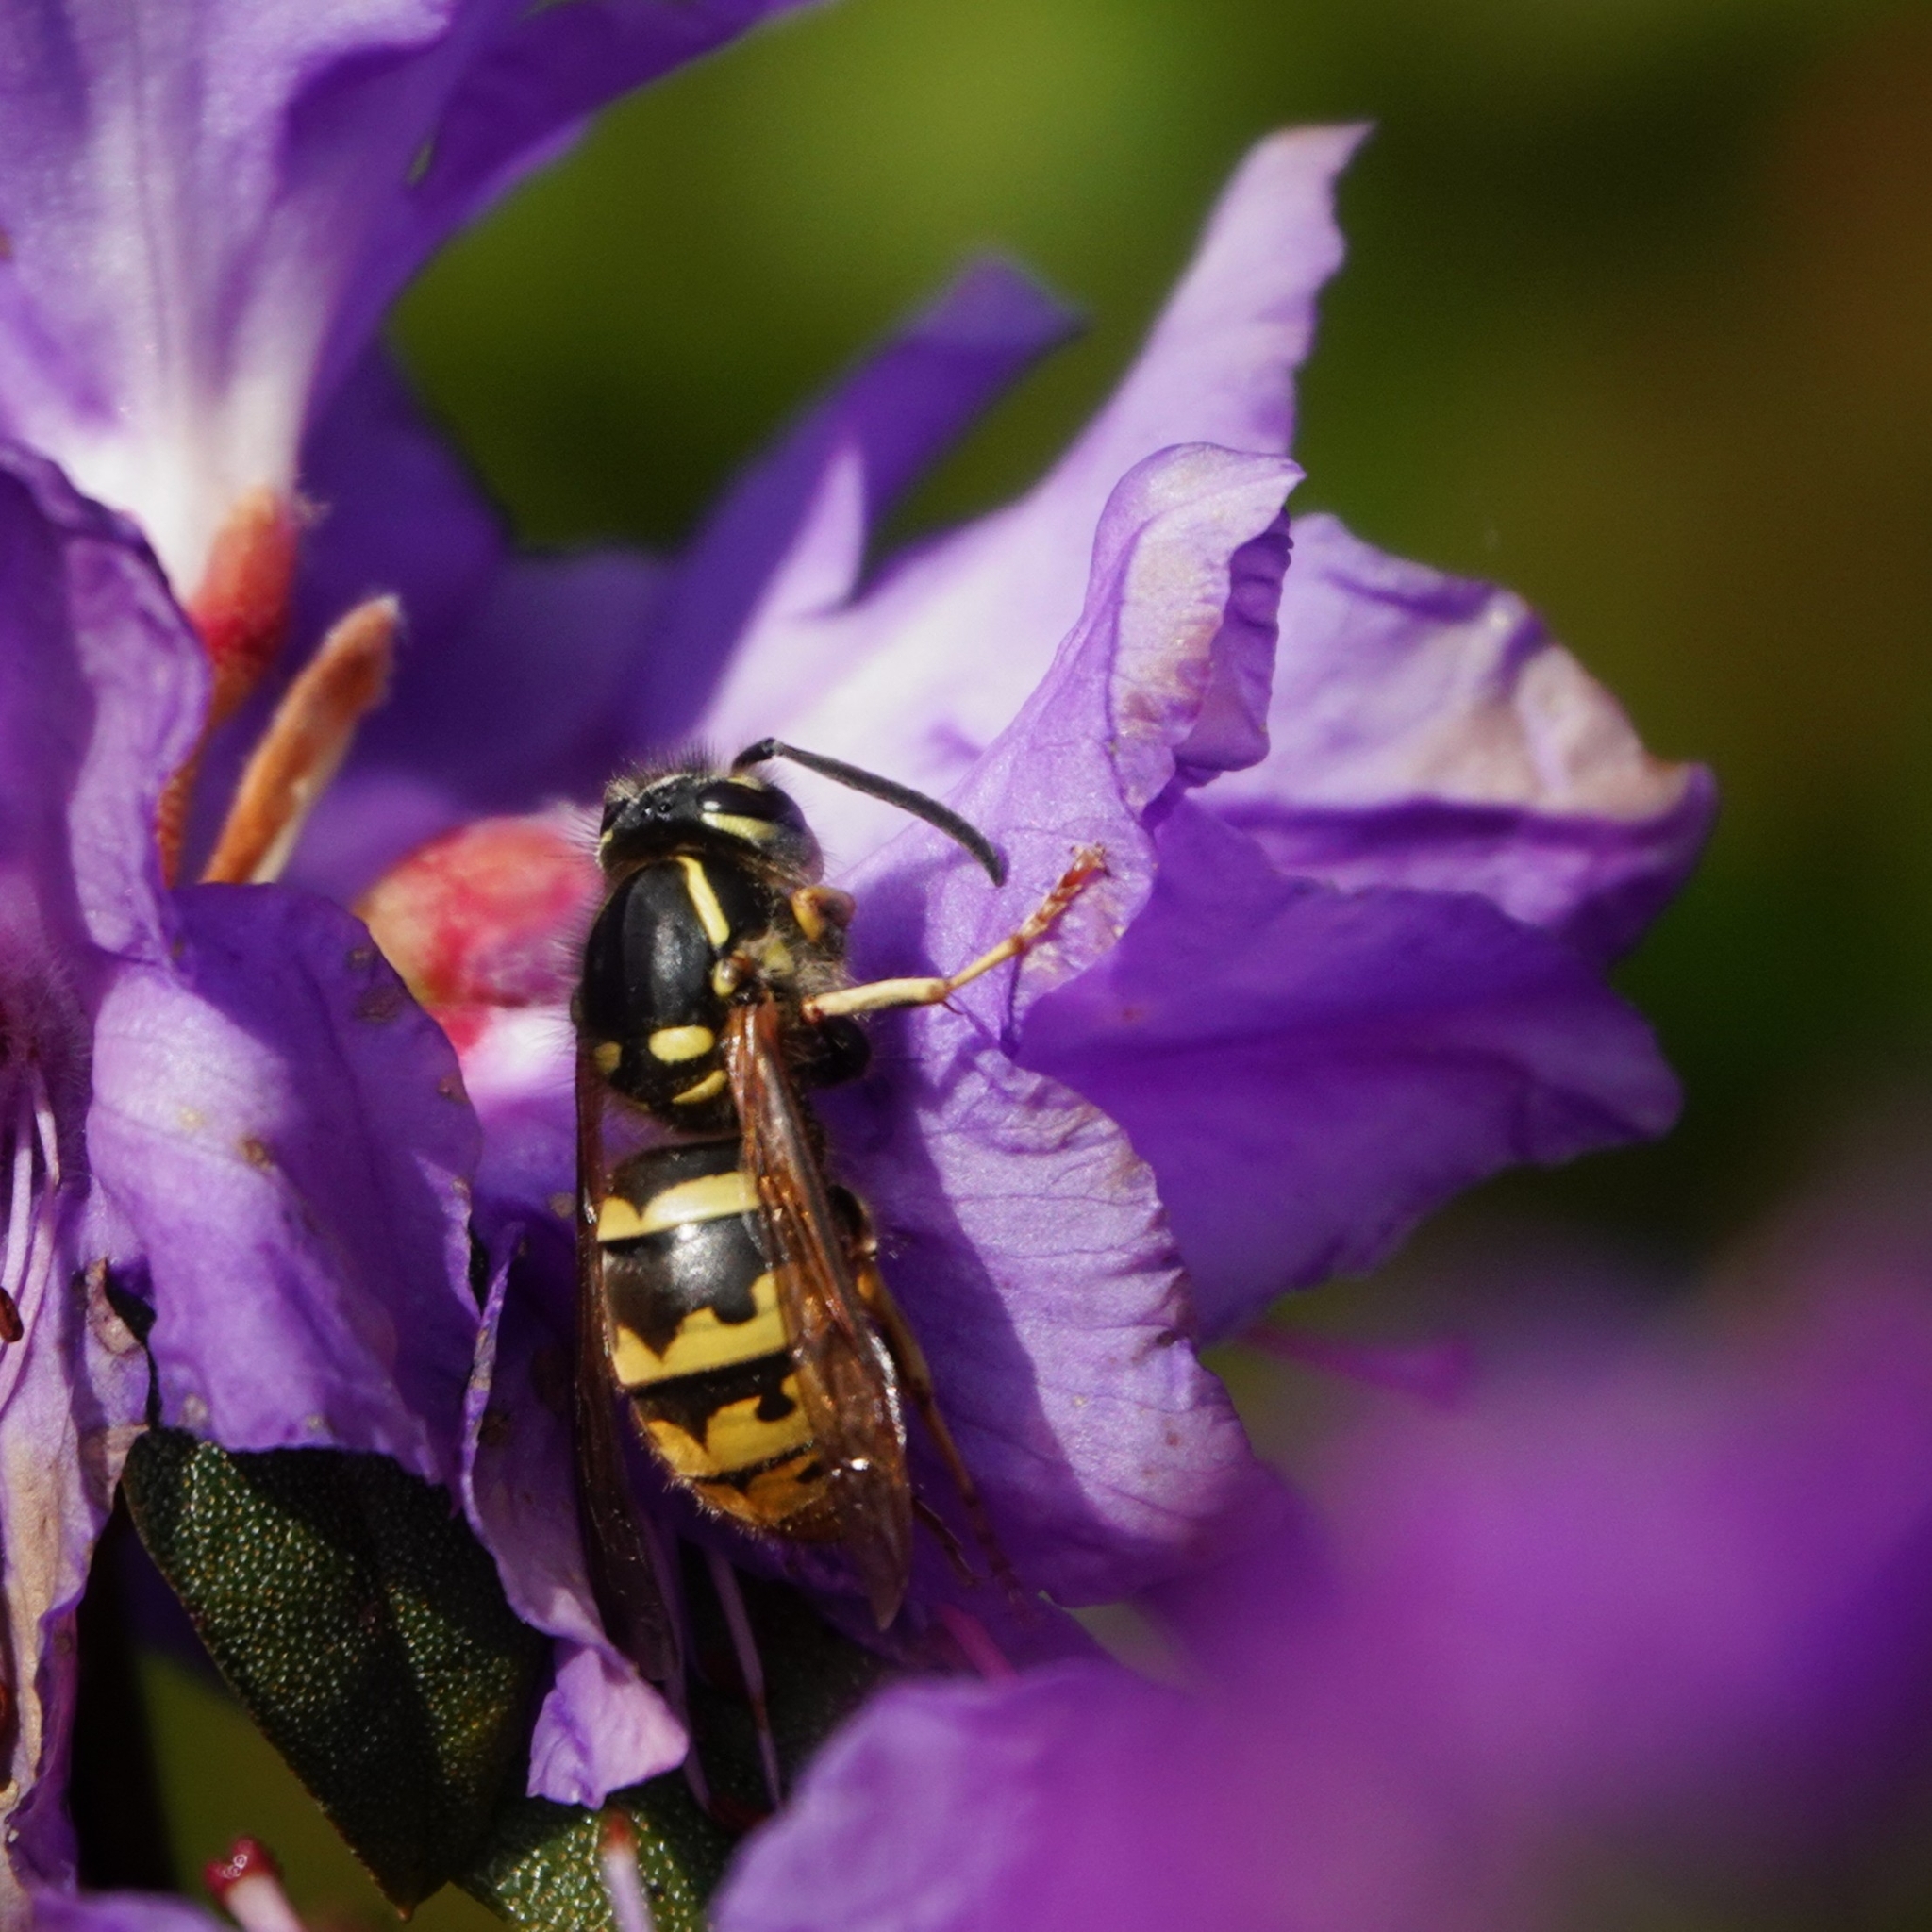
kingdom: Animalia
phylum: Arthropoda
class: Insecta
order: Hymenoptera
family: Vespidae
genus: Vespula
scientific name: Vespula vulgaris
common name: Common wasp
